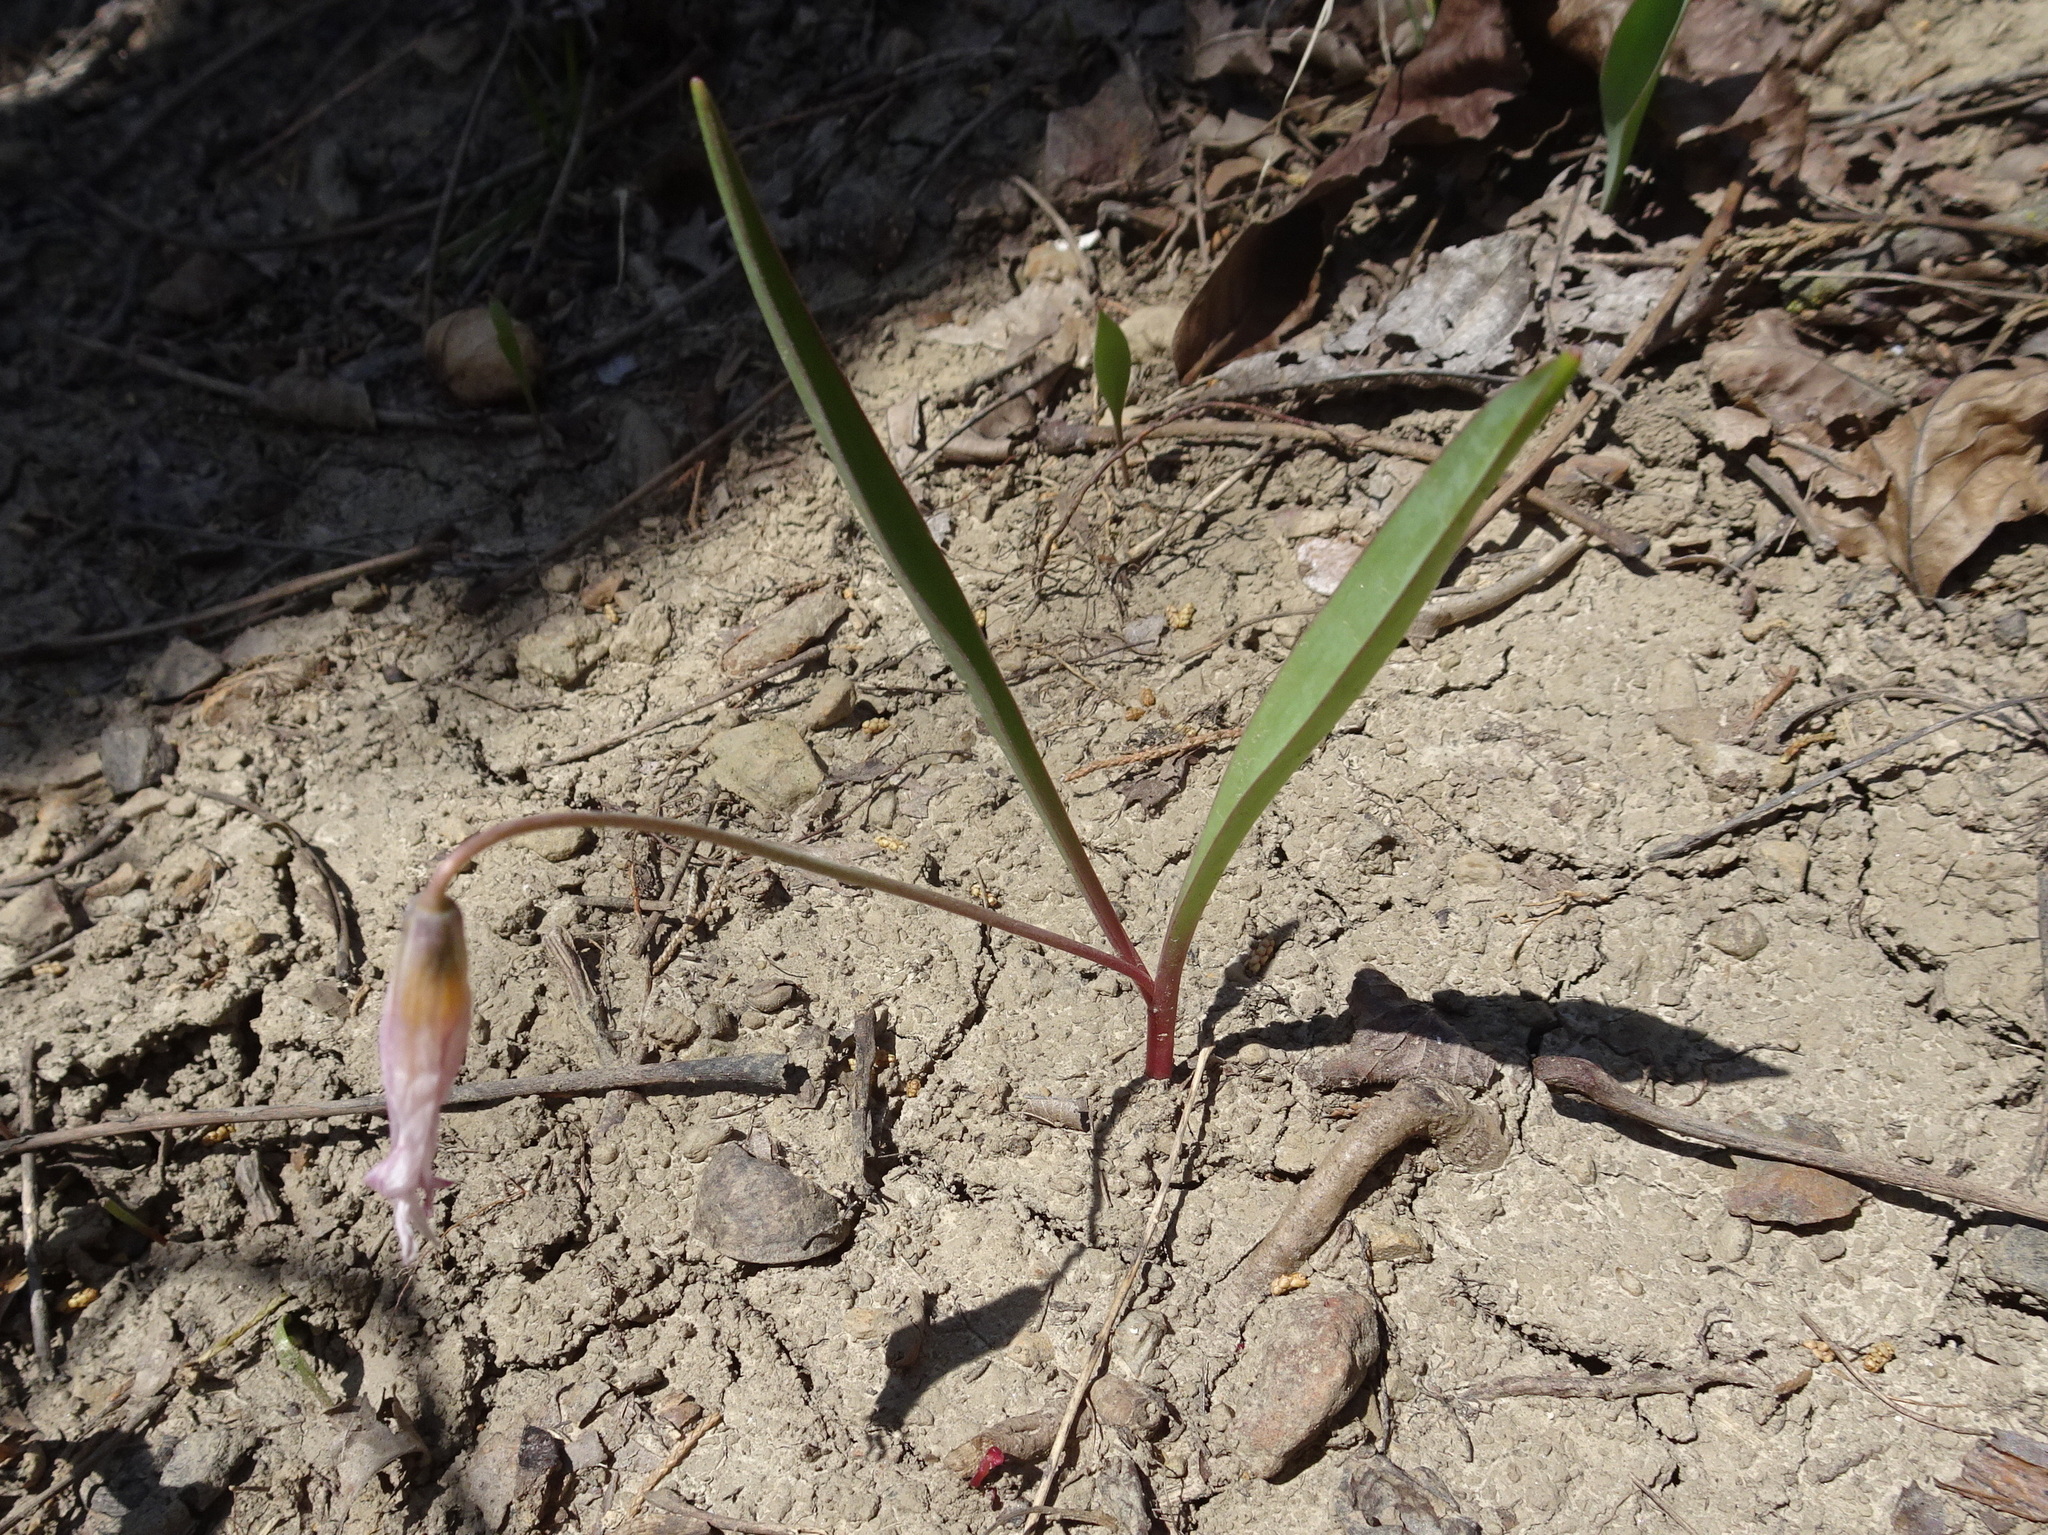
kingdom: Plantae
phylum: Tracheophyta
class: Liliopsida
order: Liliales
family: Liliaceae
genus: Erythronium
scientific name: Erythronium mesochoreum
